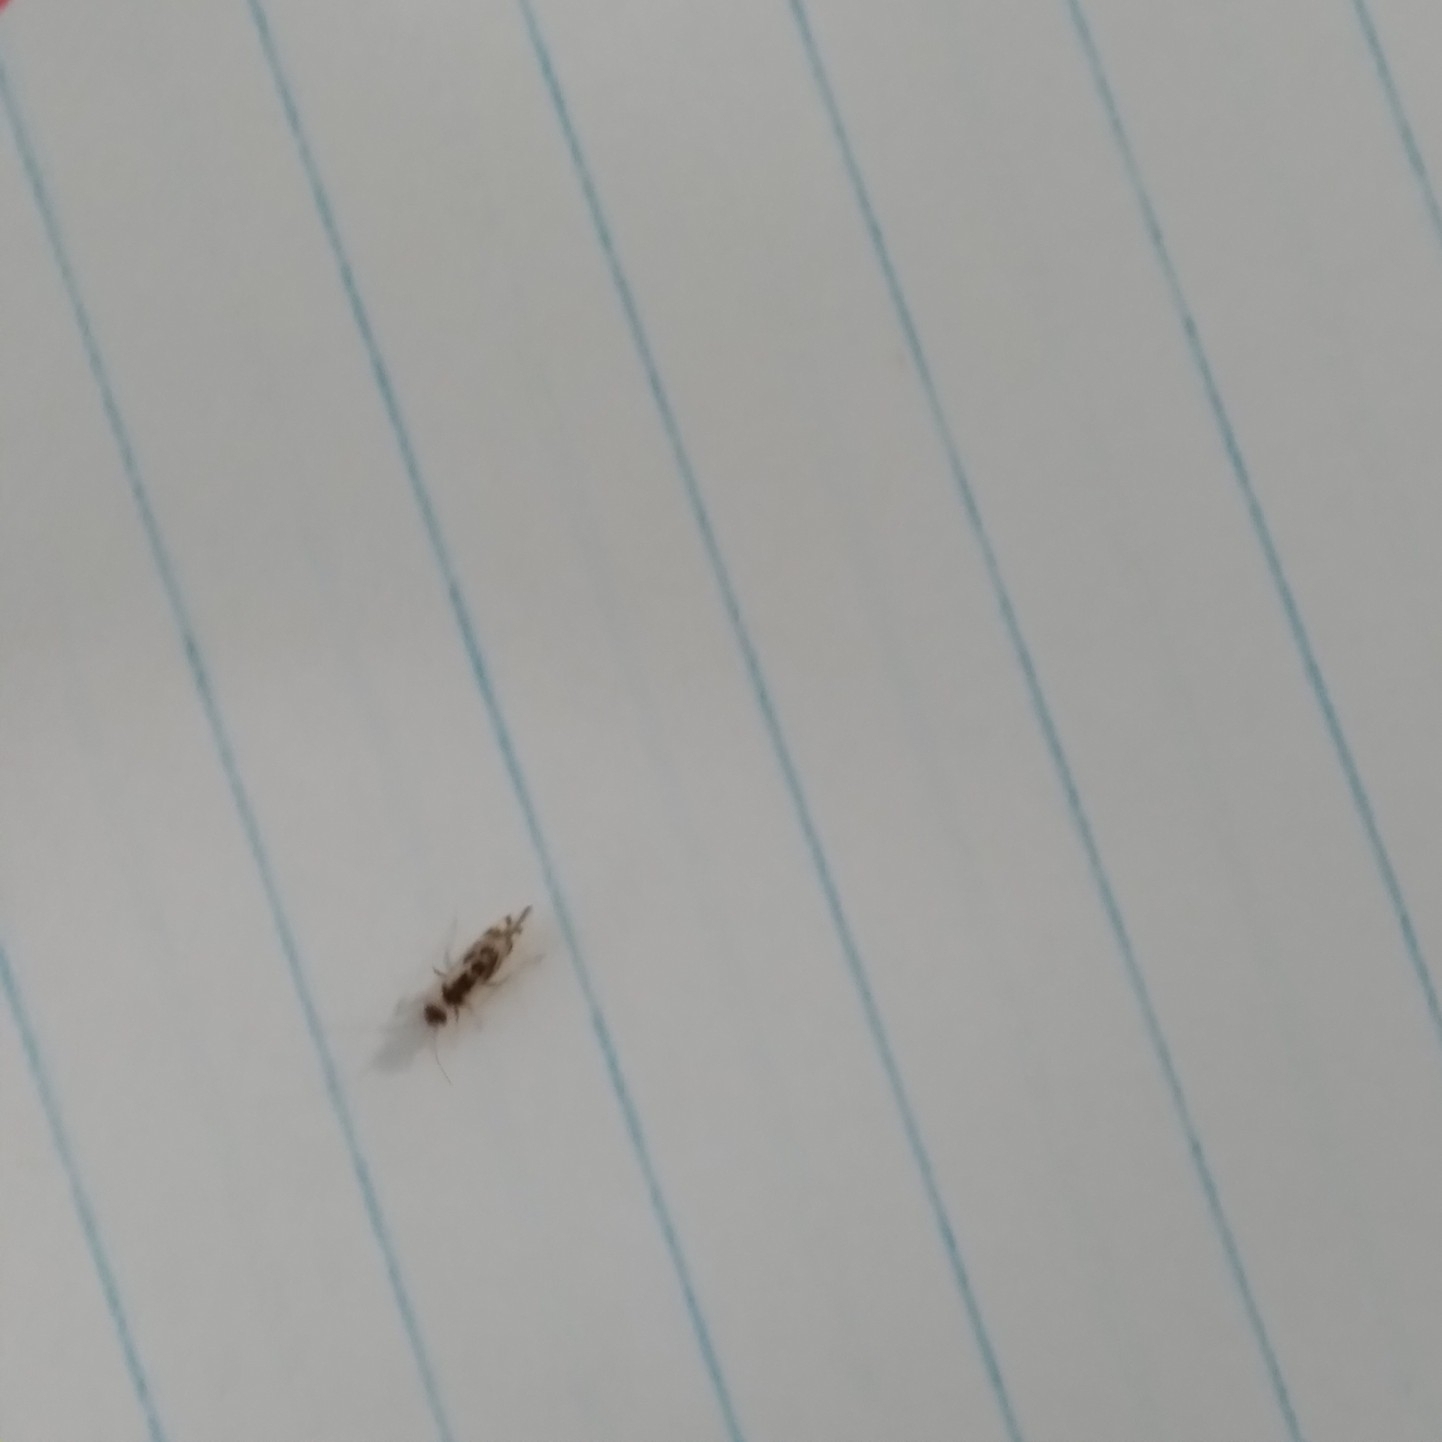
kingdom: Animalia
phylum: Arthropoda
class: Insecta
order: Psocodea
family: Stenopsocidae
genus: Graphopsocus
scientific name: Graphopsocus cruciatus
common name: Lizard bark louse
